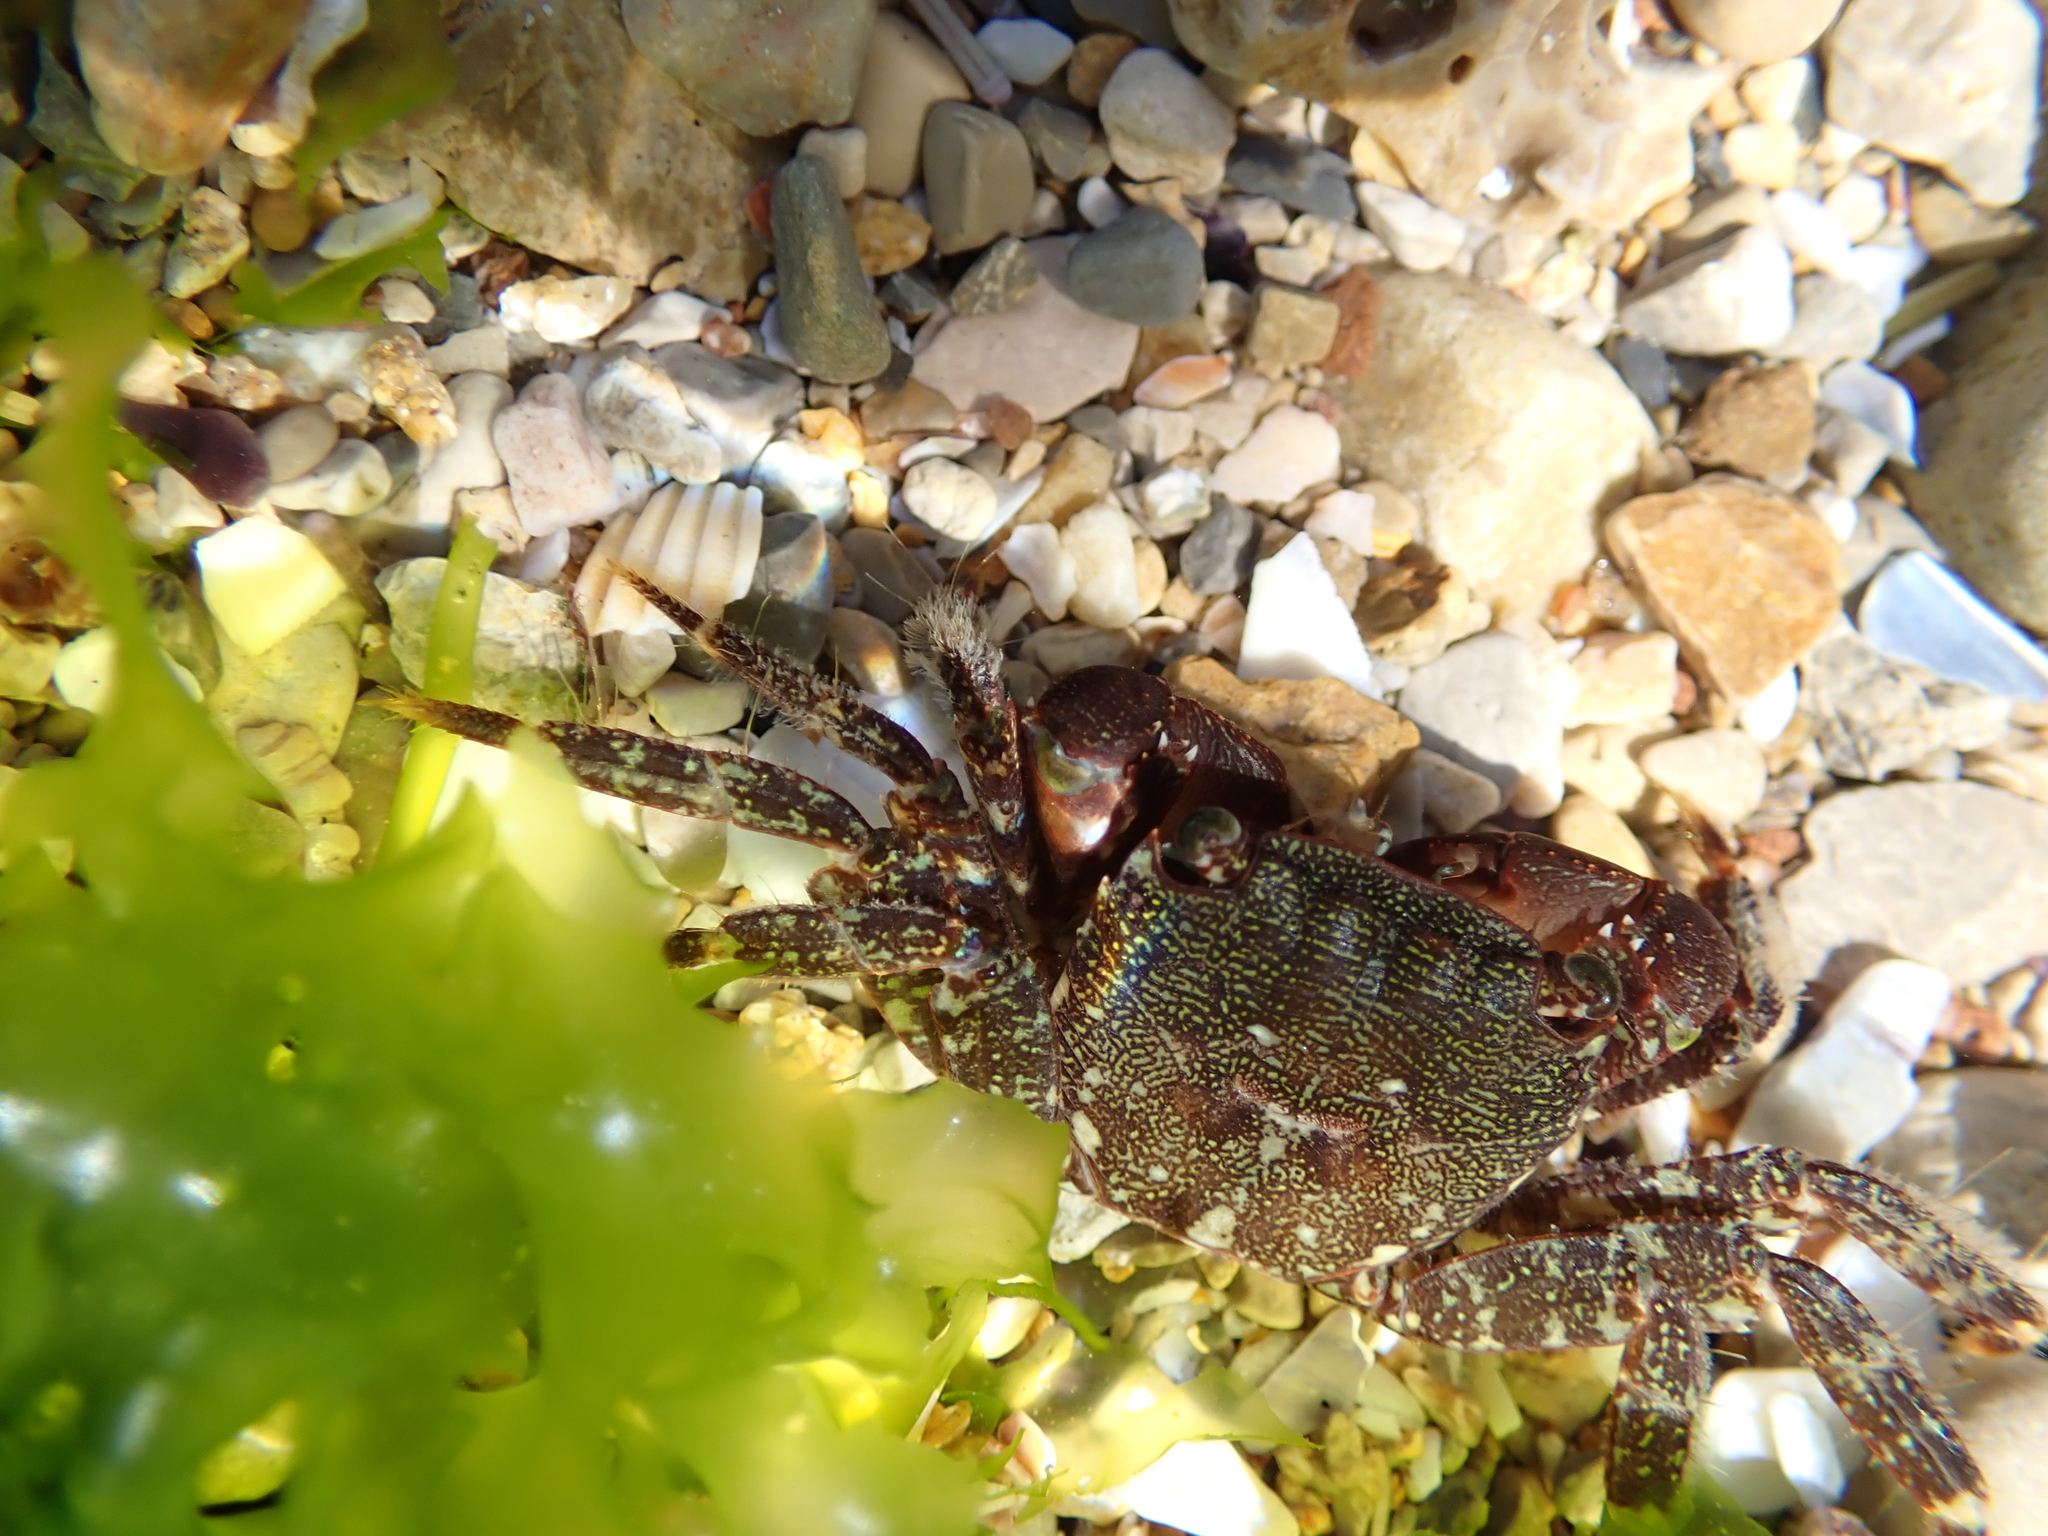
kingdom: Animalia
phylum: Arthropoda
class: Malacostraca
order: Decapoda
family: Grapsidae
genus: Pachygrapsus
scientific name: Pachygrapsus marmoratus
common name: Marbled rock crab
